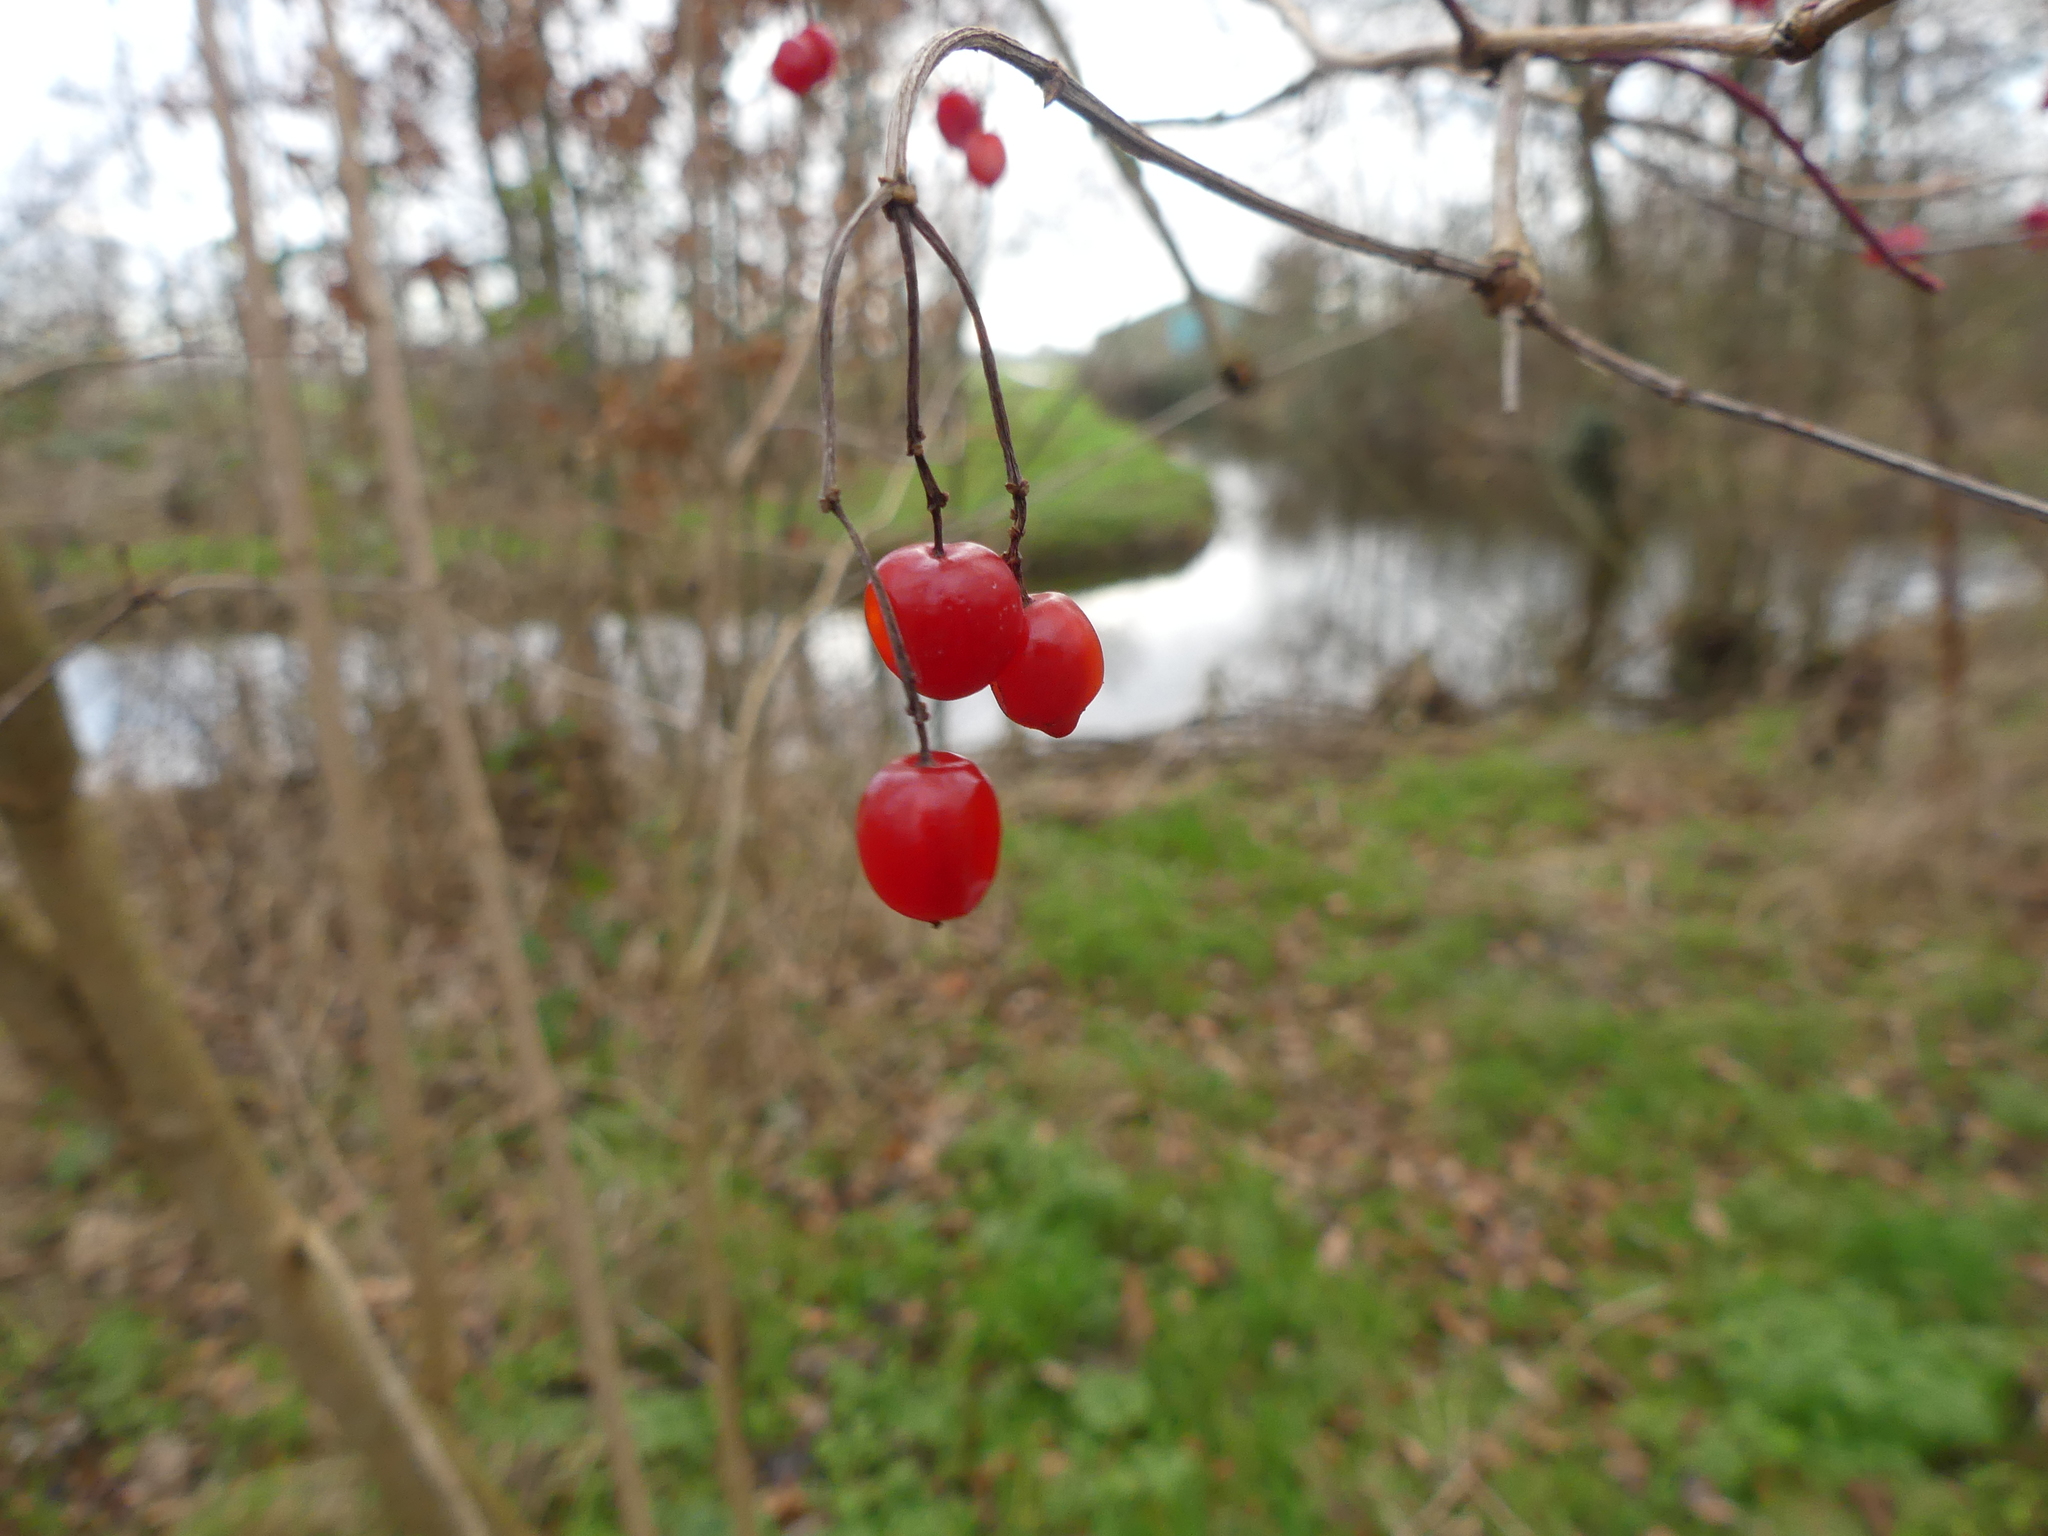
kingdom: Plantae
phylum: Tracheophyta
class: Magnoliopsida
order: Dipsacales
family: Viburnaceae
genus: Viburnum
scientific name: Viburnum opulus
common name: Guelder-rose
